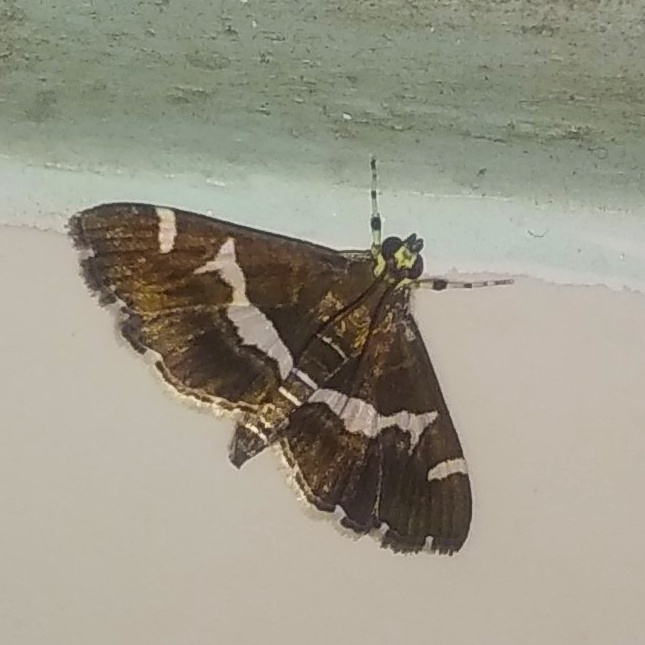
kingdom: Animalia
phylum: Arthropoda
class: Insecta
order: Lepidoptera
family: Crambidae
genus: Spoladea
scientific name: Spoladea recurvalis
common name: Beet webworm moth
